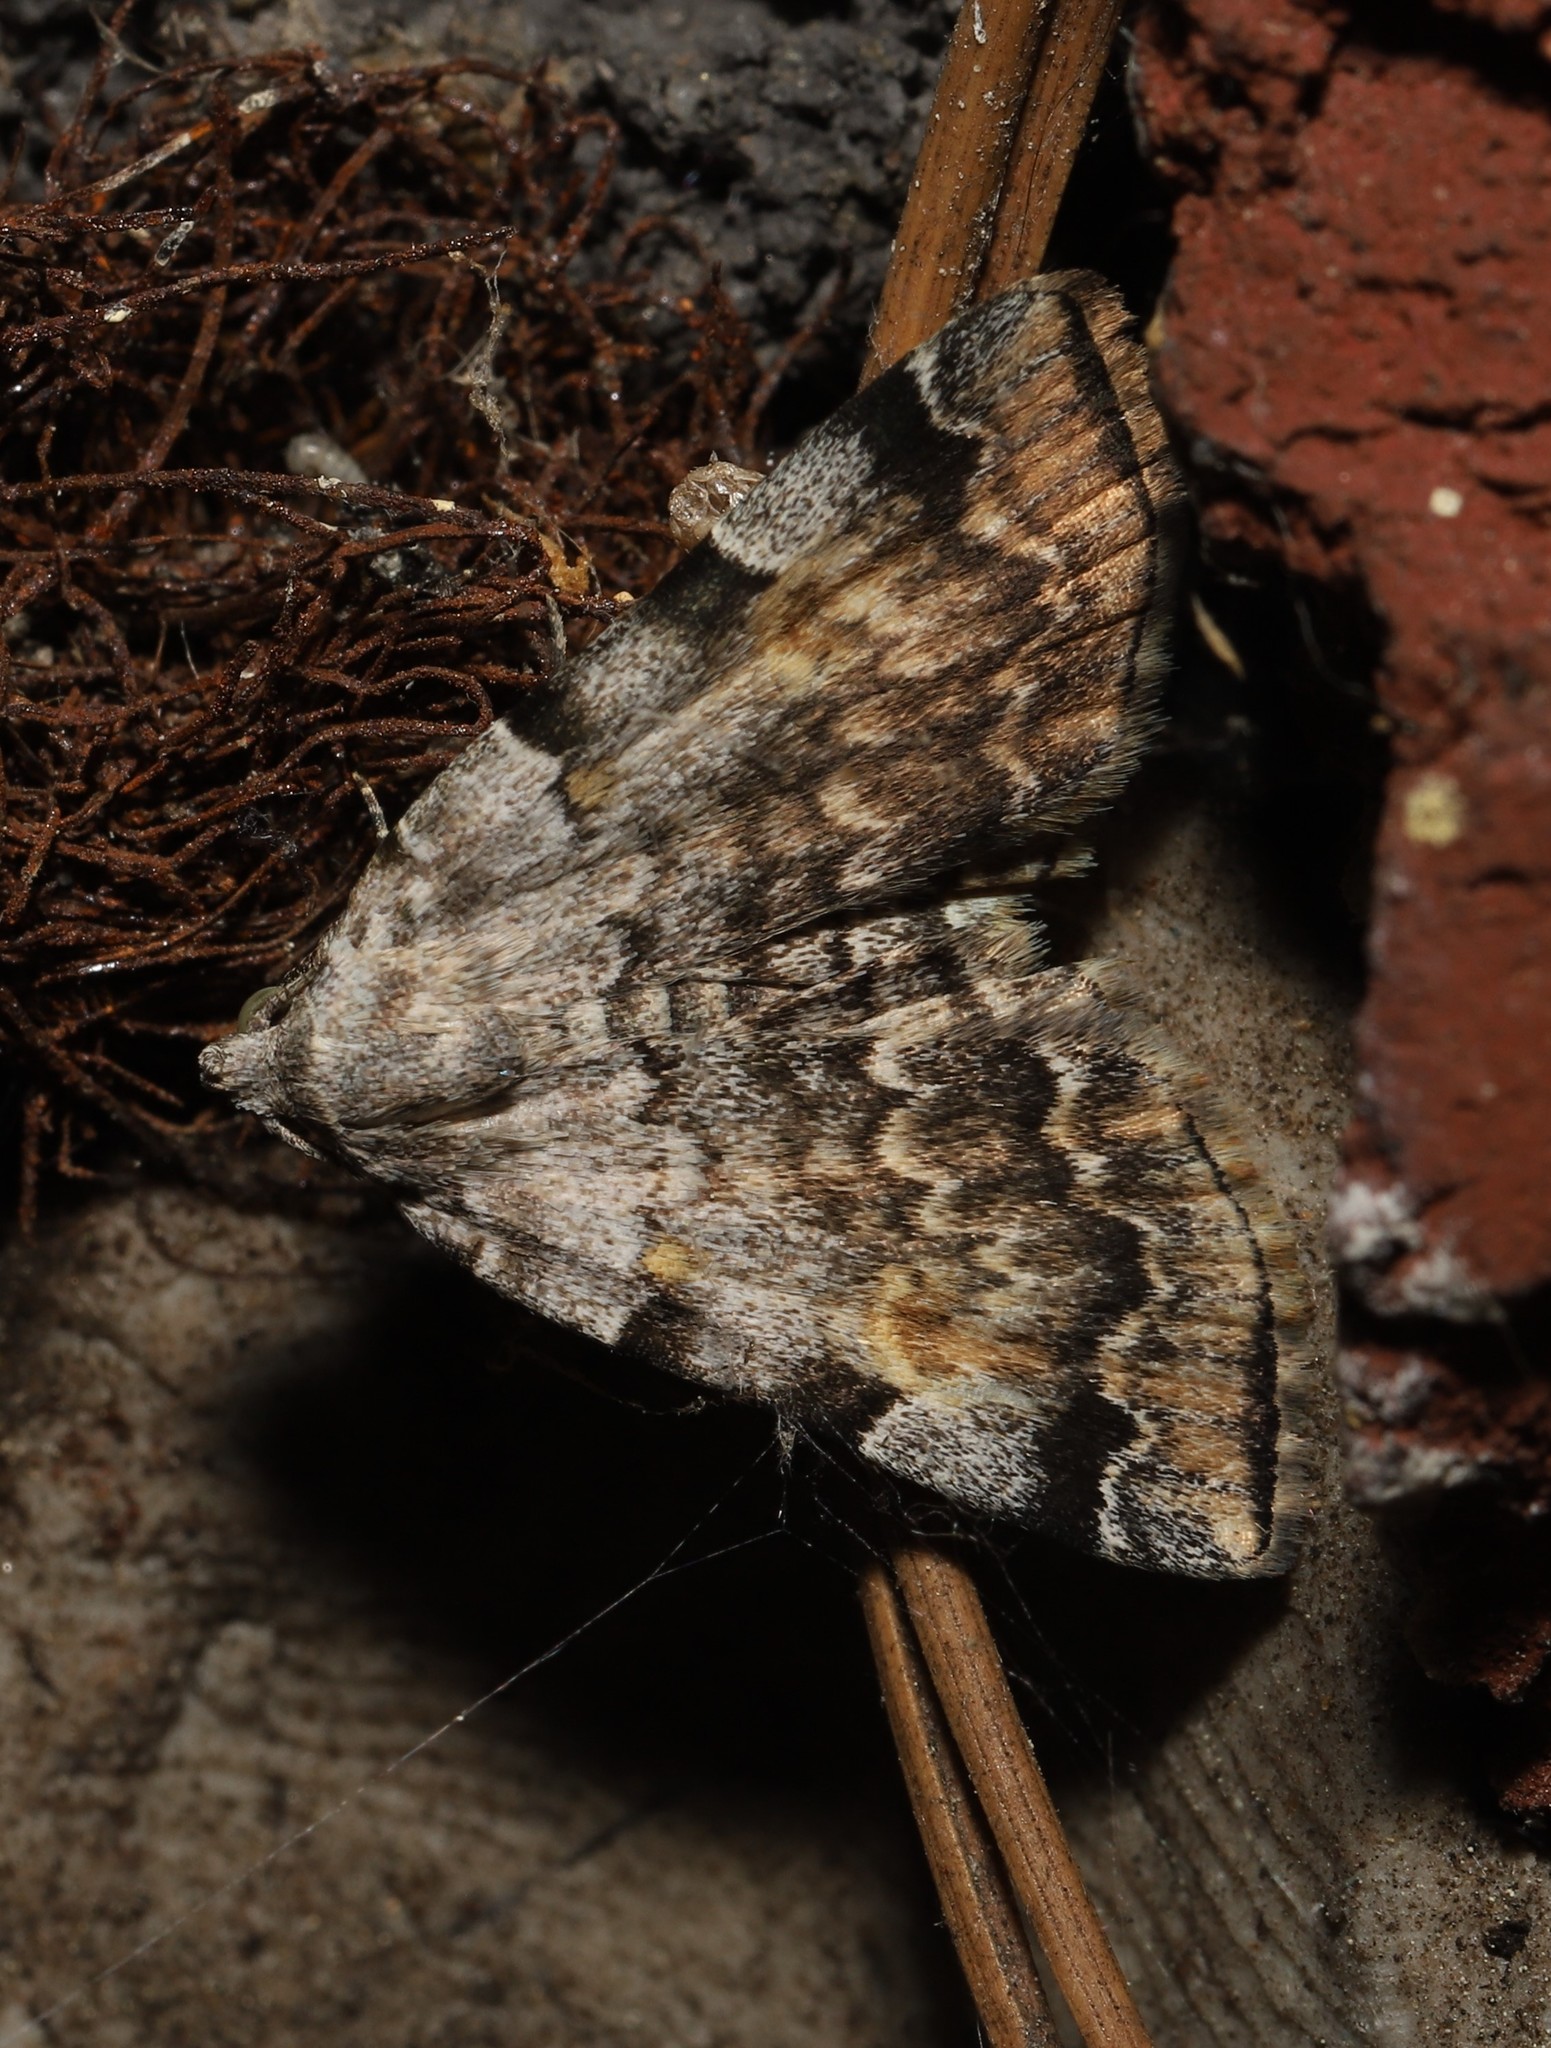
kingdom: Animalia
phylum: Arthropoda
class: Insecta
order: Lepidoptera
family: Erebidae
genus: Idia
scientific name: Idia americalis
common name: American idia moth
